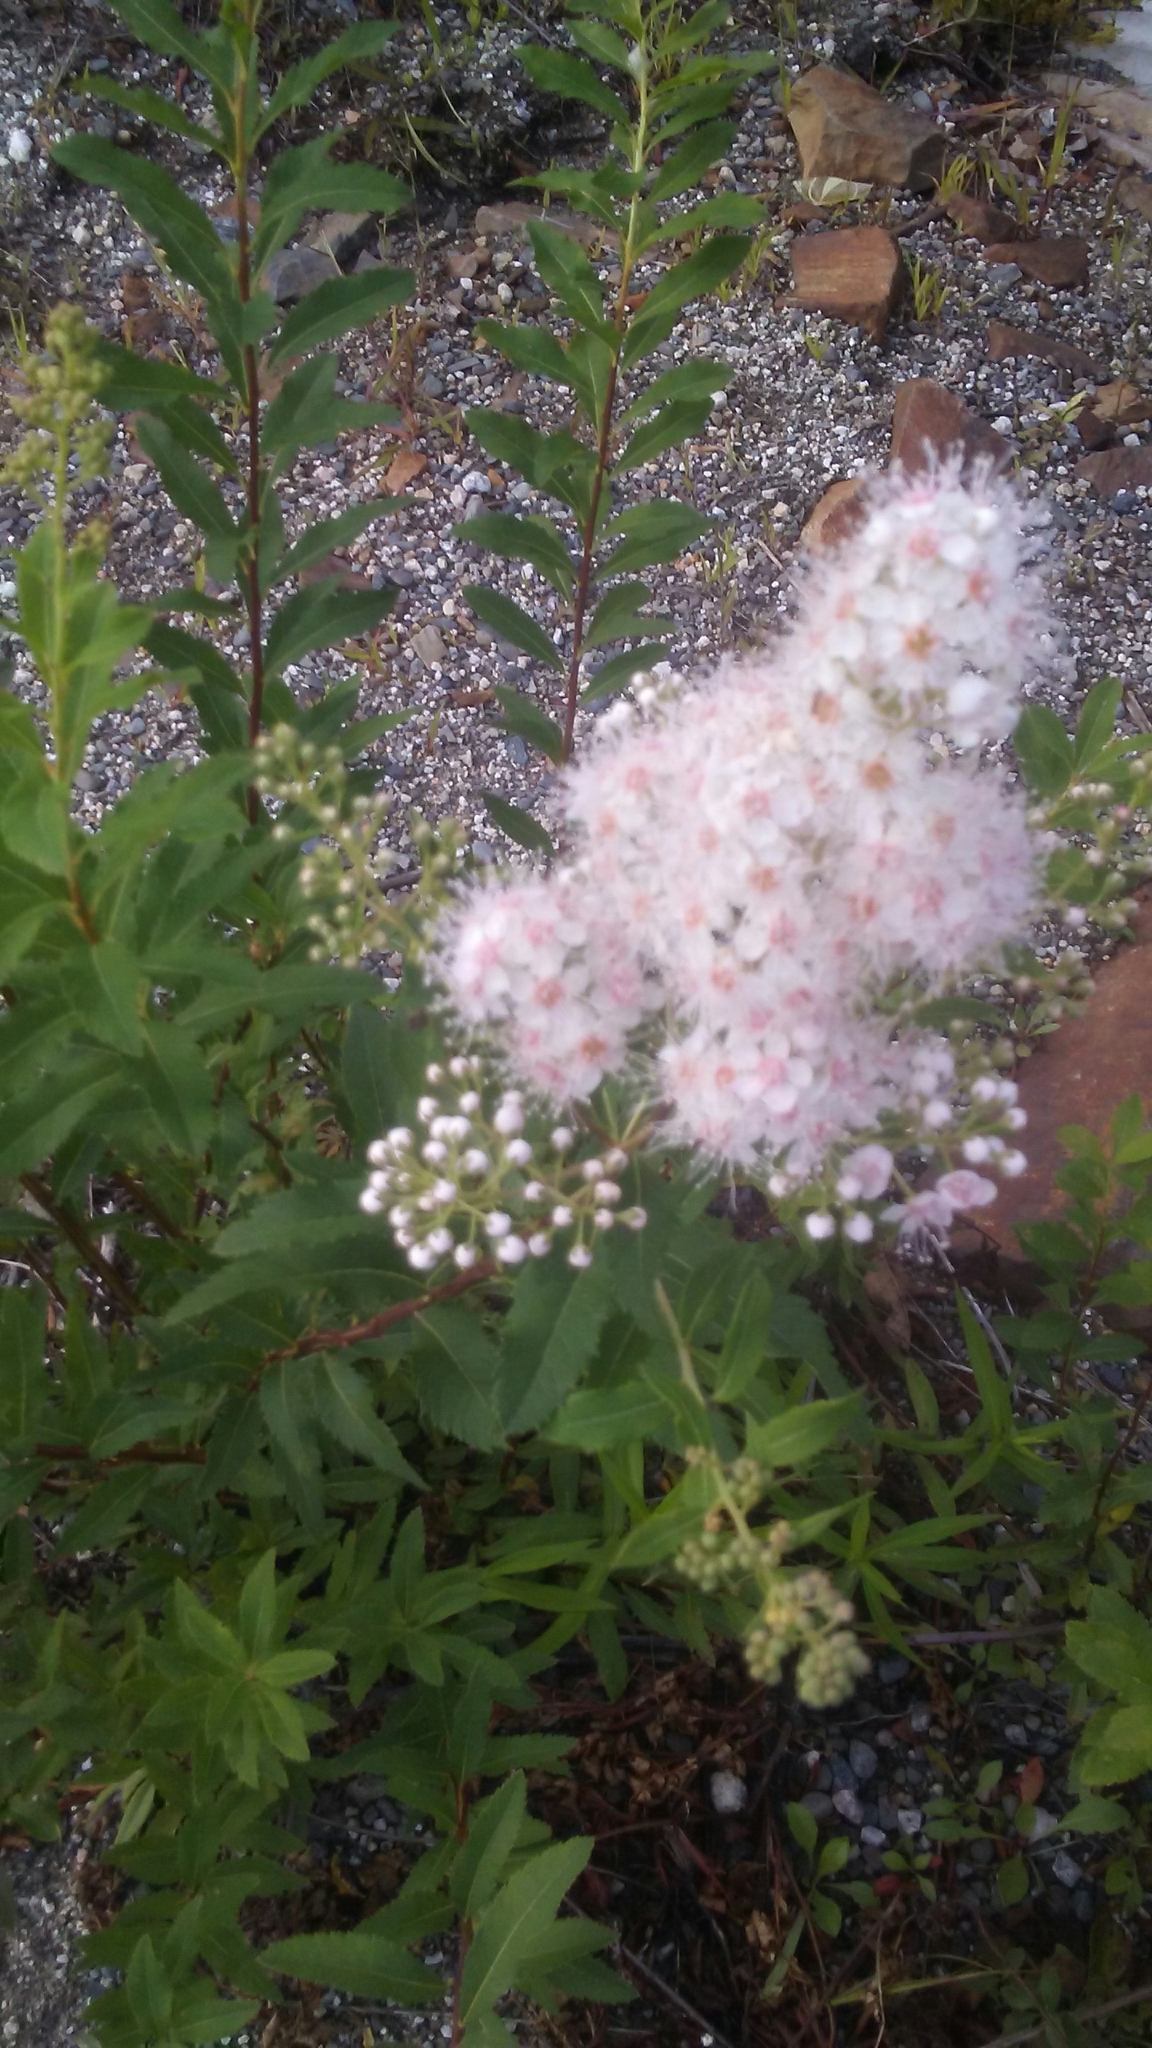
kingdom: Plantae
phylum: Tracheophyta
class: Magnoliopsida
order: Rosales
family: Rosaceae
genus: Spiraea
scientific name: Spiraea alba
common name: Pale bridewort
